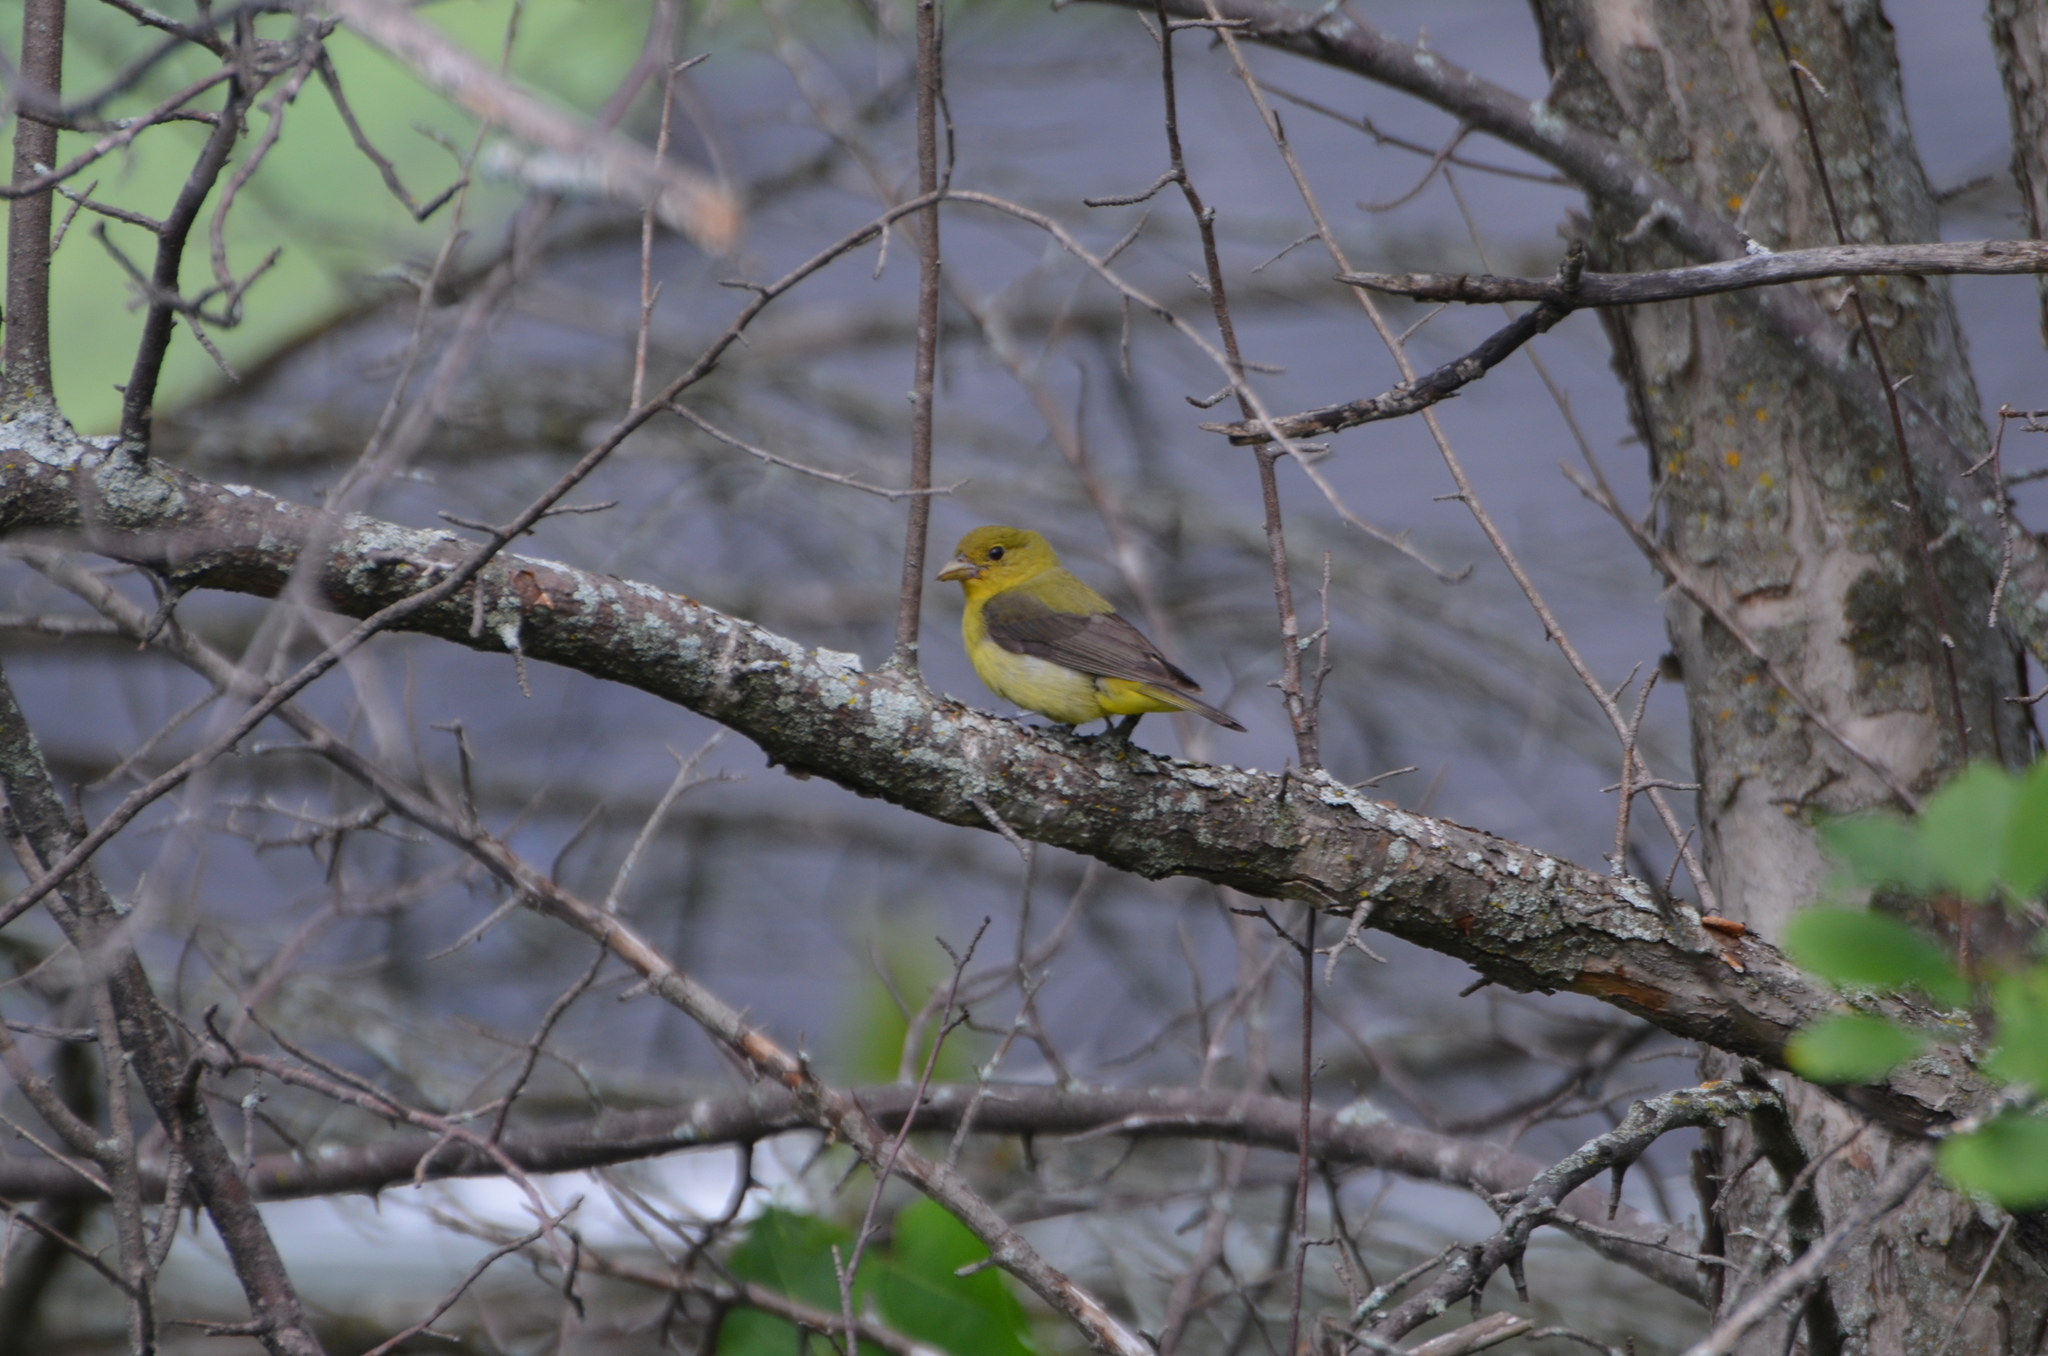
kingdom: Animalia
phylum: Chordata
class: Aves
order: Passeriformes
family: Cardinalidae
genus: Piranga
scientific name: Piranga olivacea
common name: Scarlet tanager
